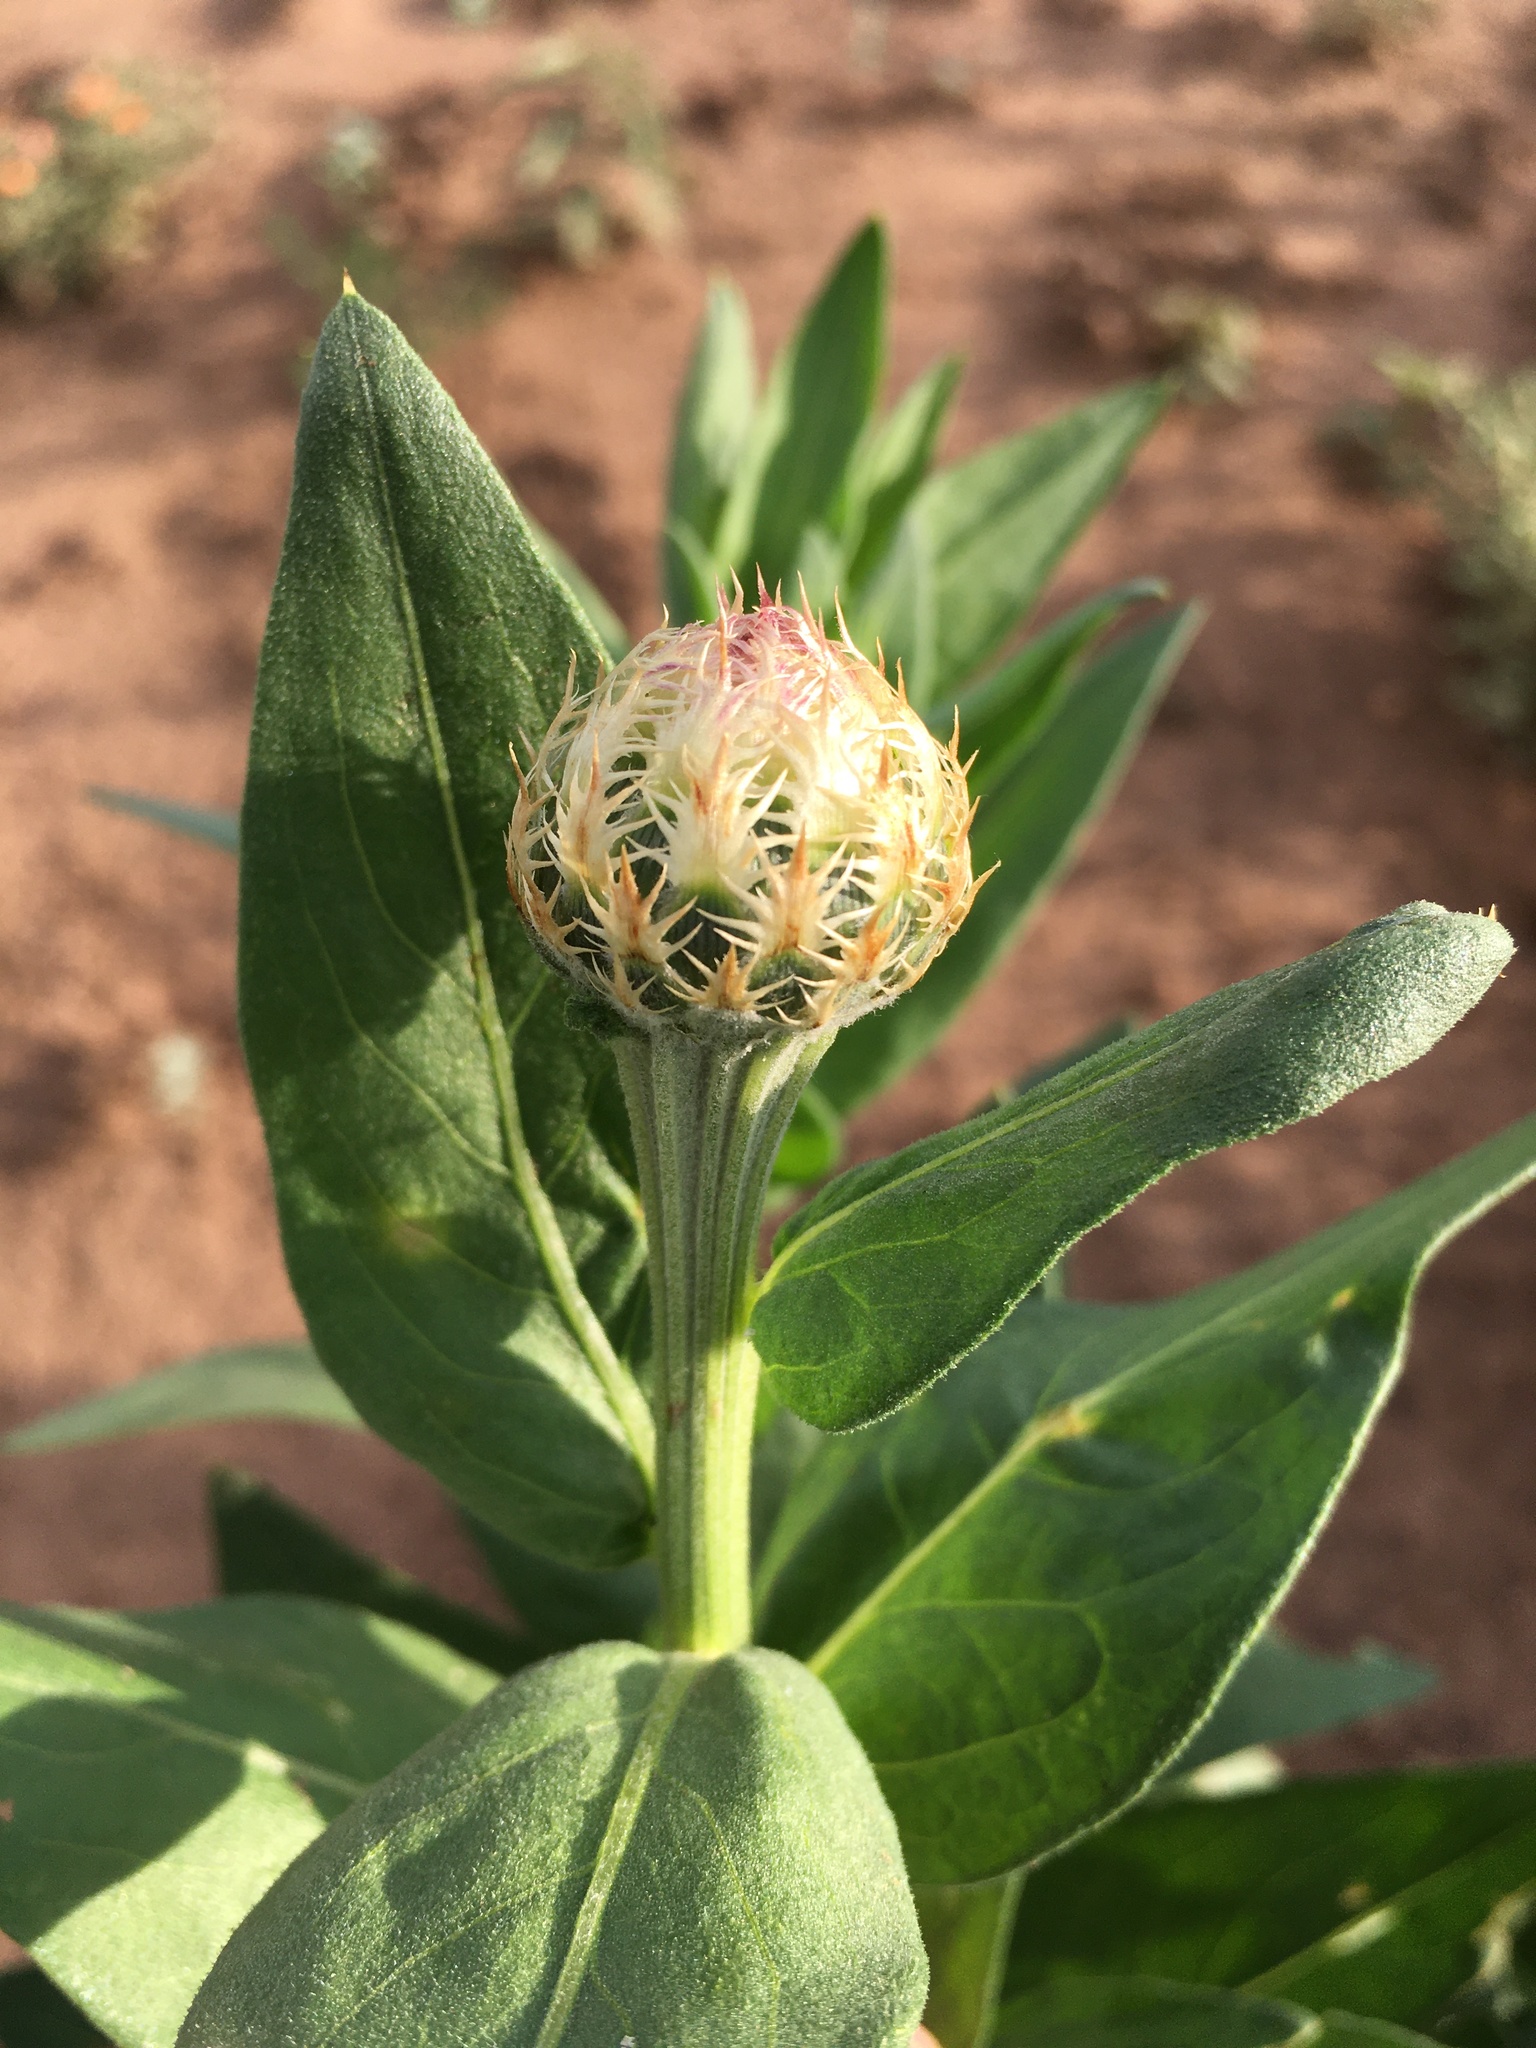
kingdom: Plantae
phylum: Tracheophyta
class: Magnoliopsida
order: Asterales
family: Asteraceae
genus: Plectocephalus
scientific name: Plectocephalus americanus
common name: American basket-flower
